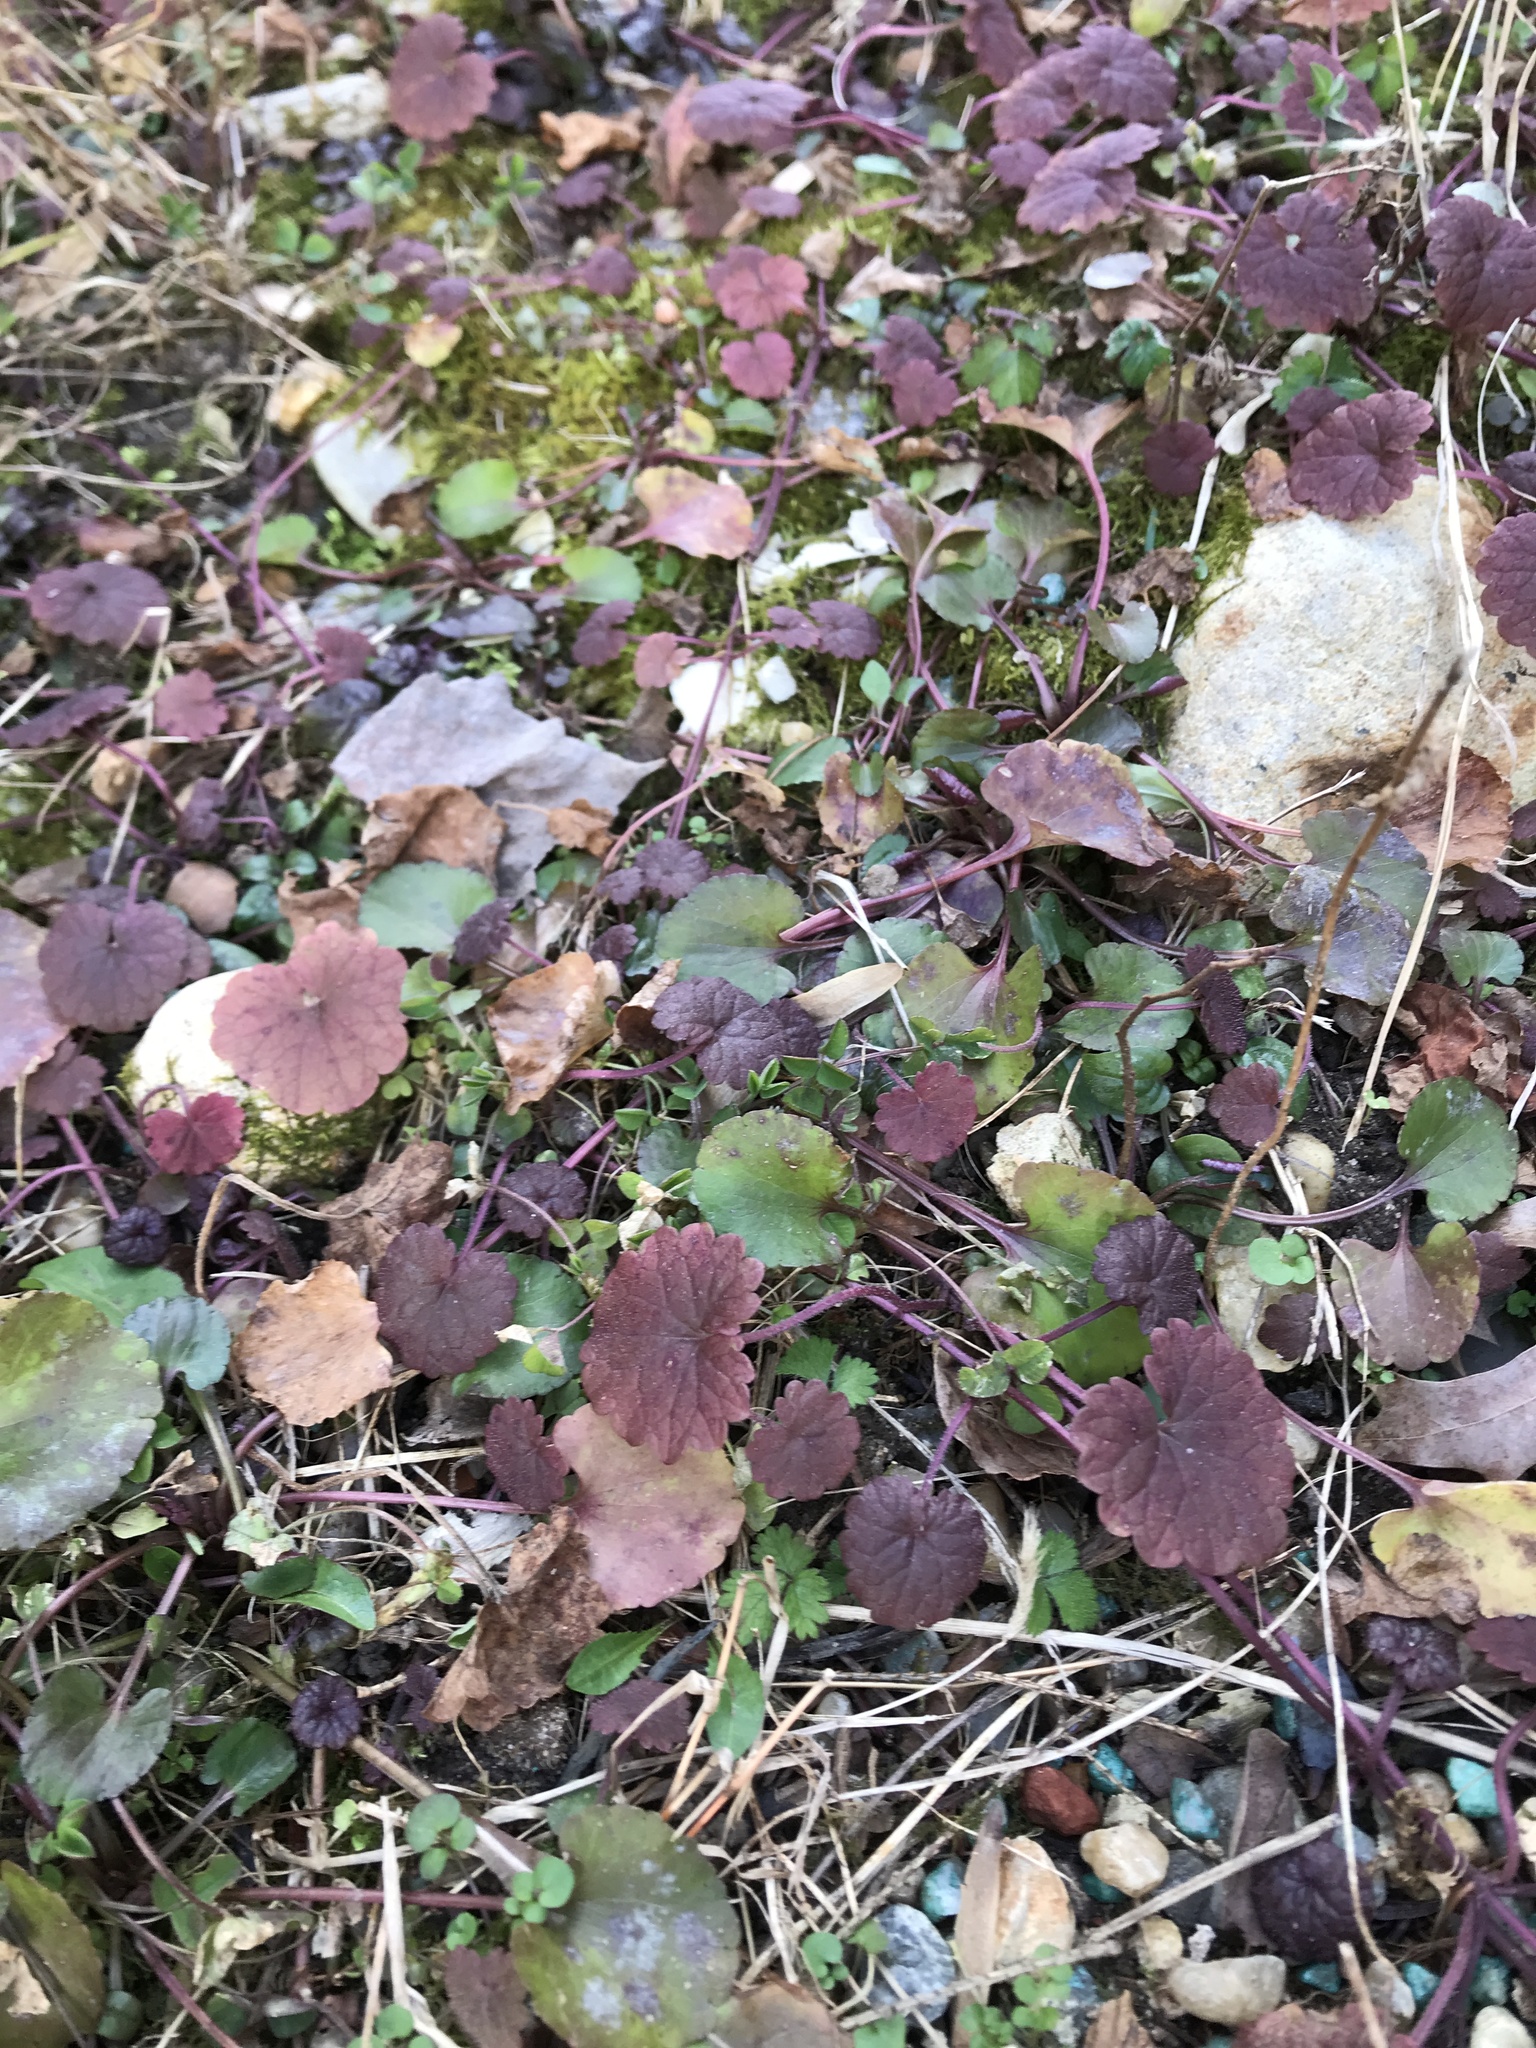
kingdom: Plantae
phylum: Tracheophyta
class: Magnoliopsida
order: Lamiales
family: Lamiaceae
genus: Glechoma
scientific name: Glechoma hederacea
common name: Ground ivy
